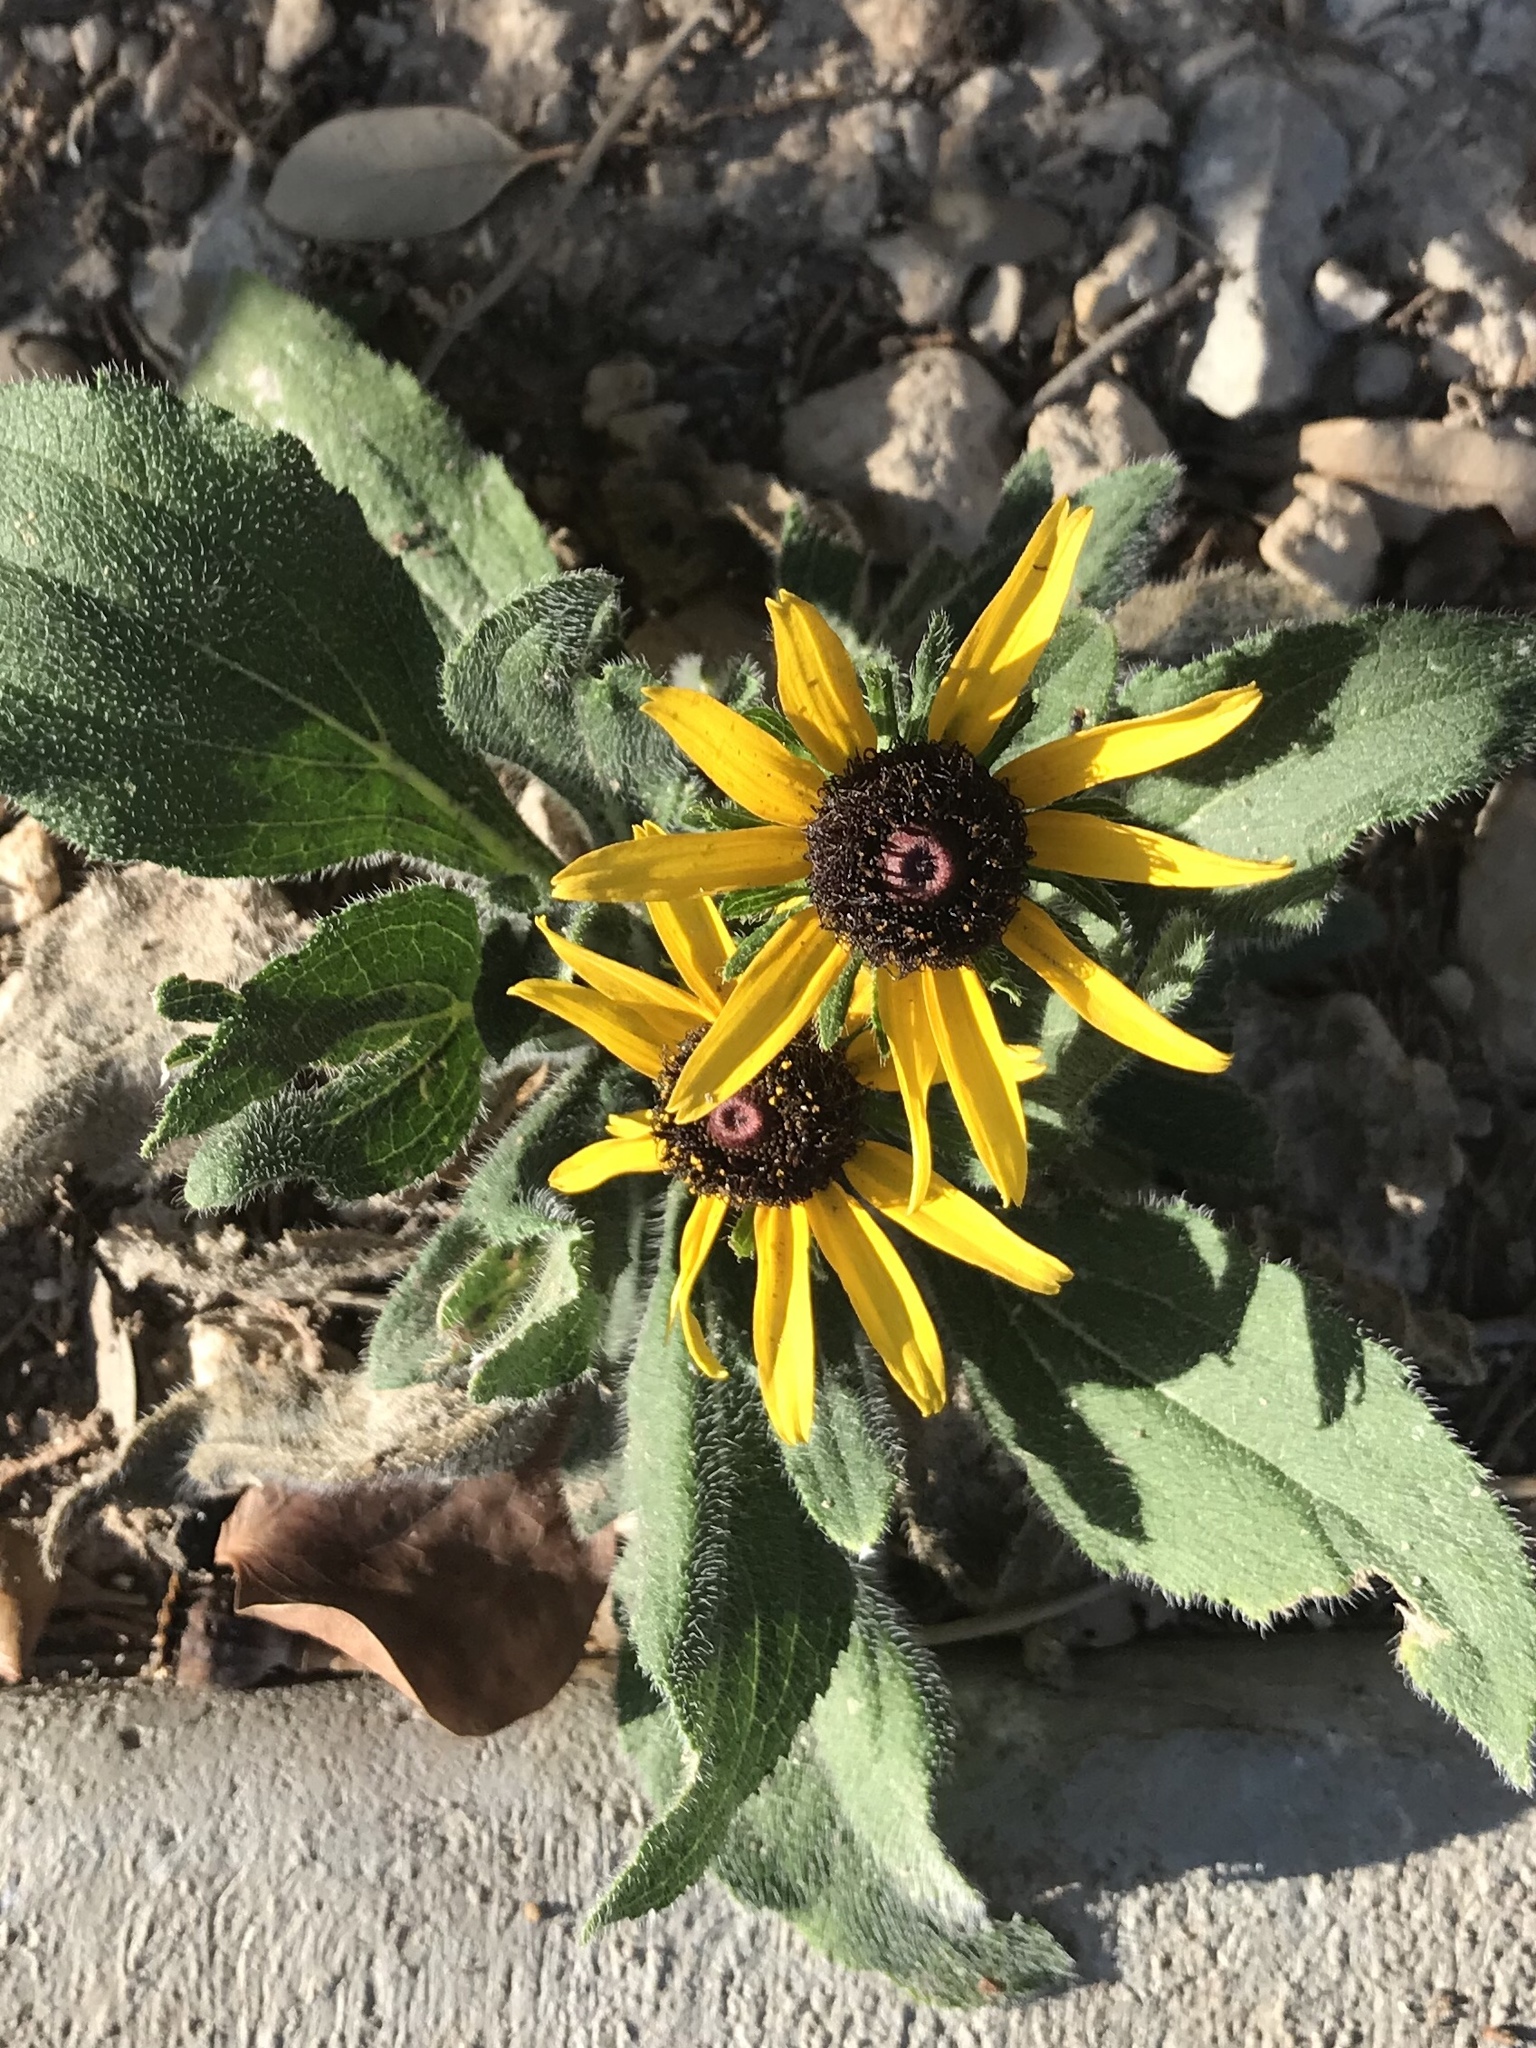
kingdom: Plantae
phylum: Tracheophyta
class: Magnoliopsida
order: Asterales
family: Asteraceae
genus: Rudbeckia
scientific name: Rudbeckia hirta
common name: Black-eyed-susan
